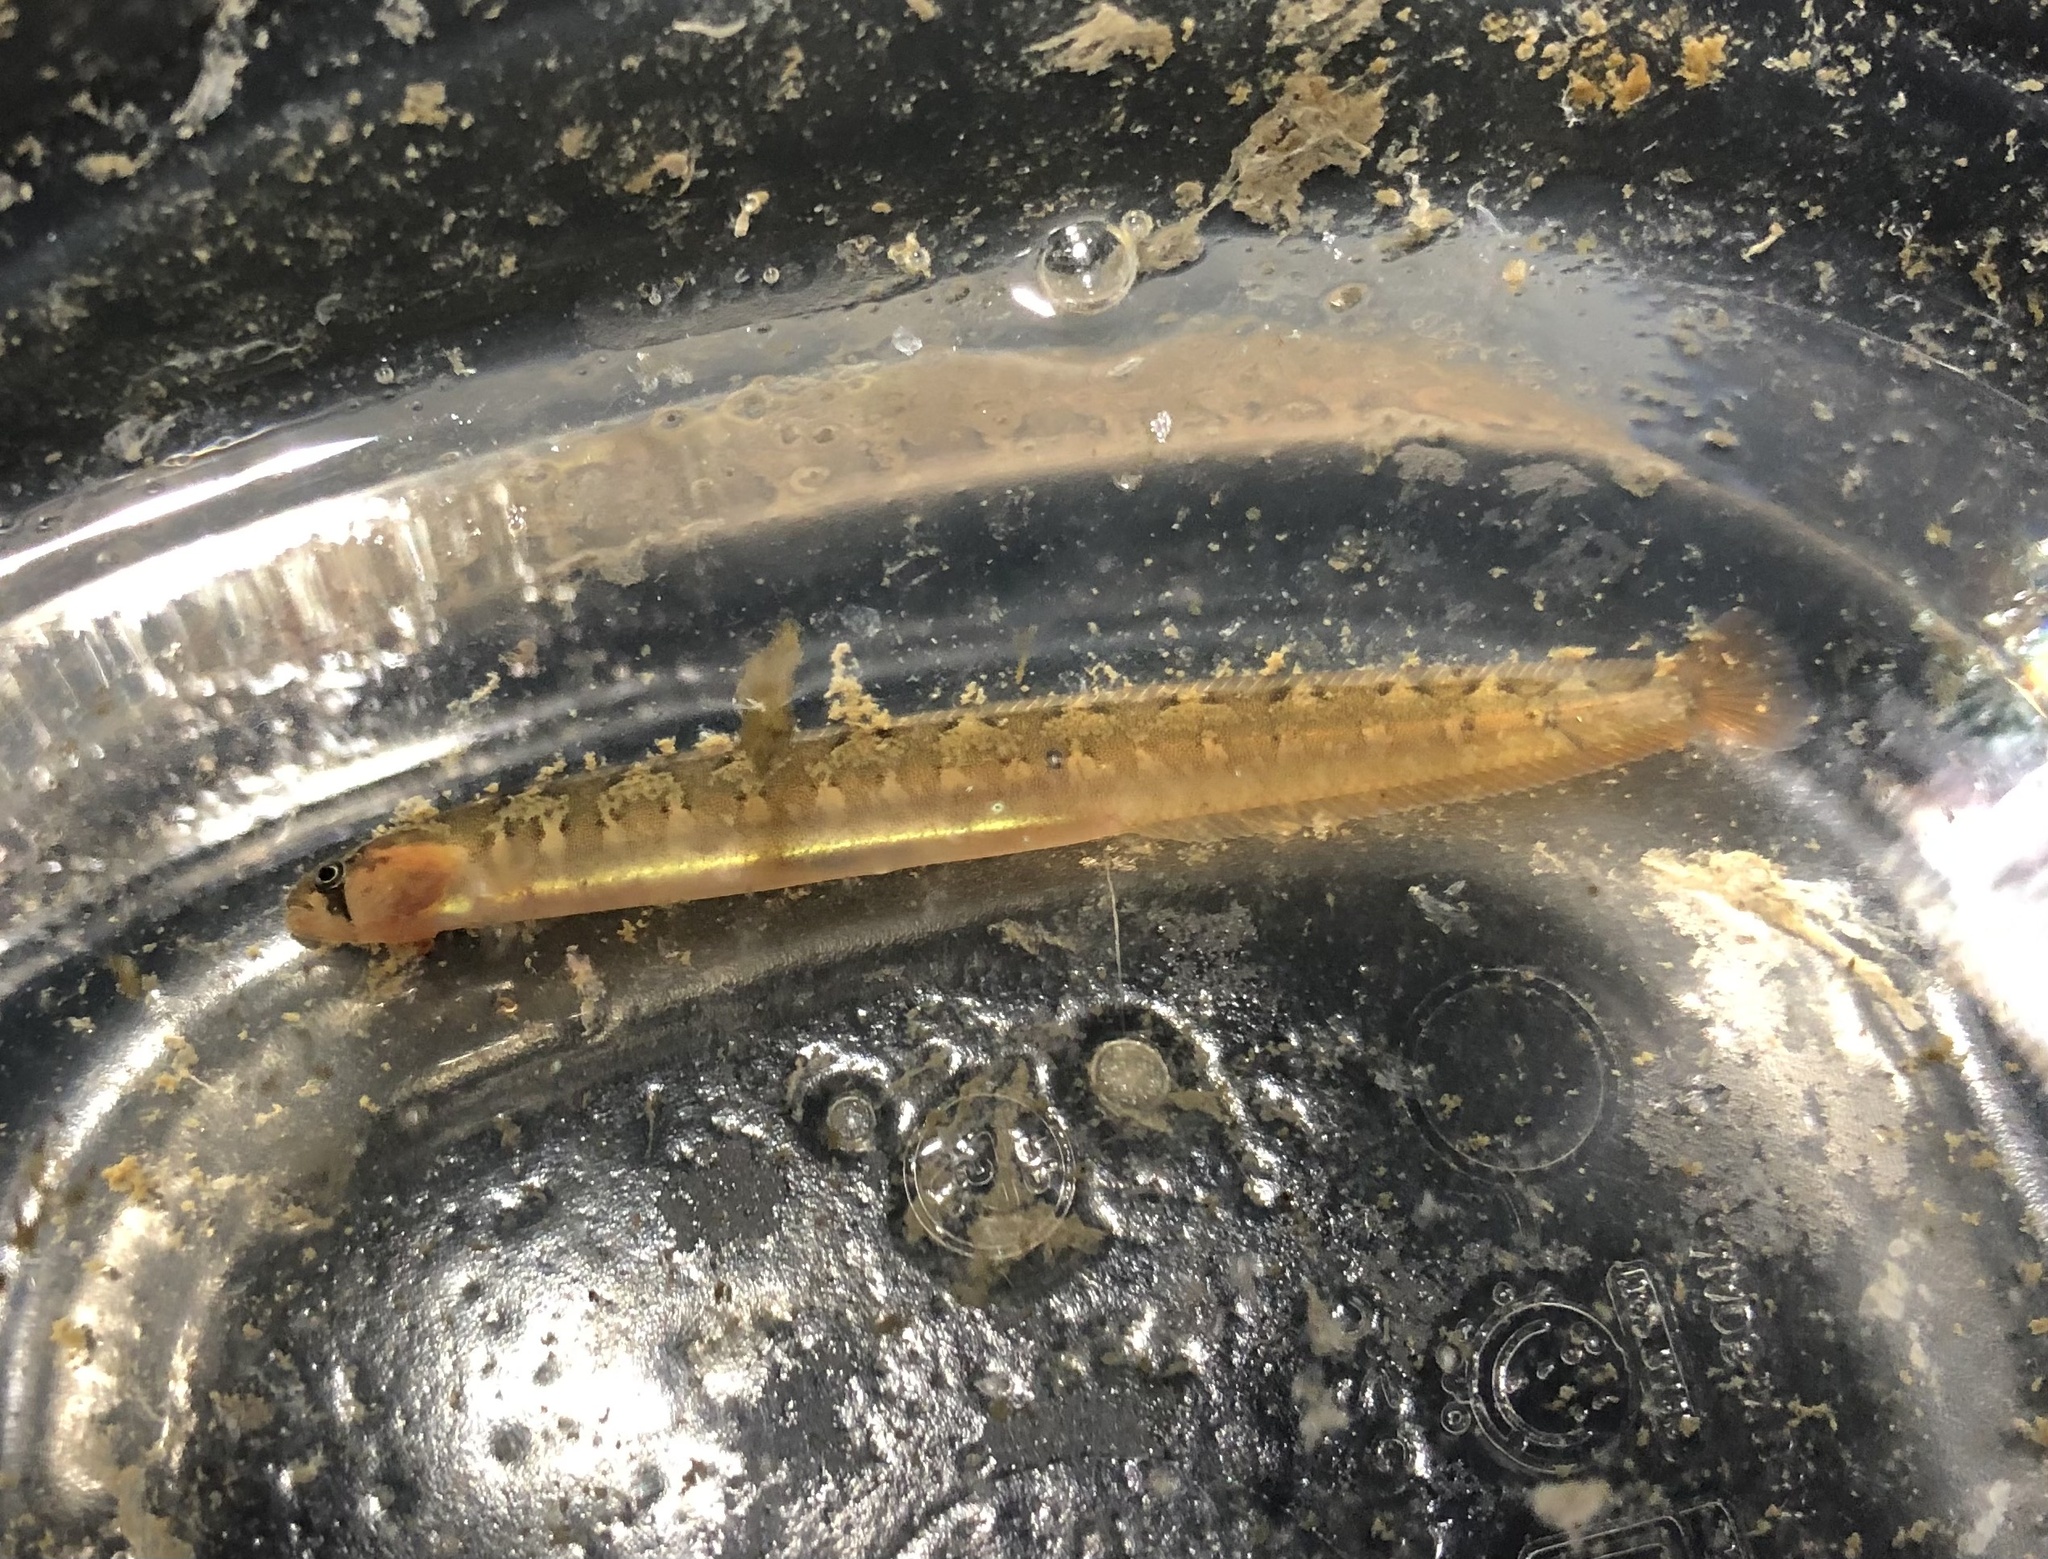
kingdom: Animalia
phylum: Chordata
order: Perciformes
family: Pholidae
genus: Pholis
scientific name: Pholis ornata
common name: Saddleback gunnel
